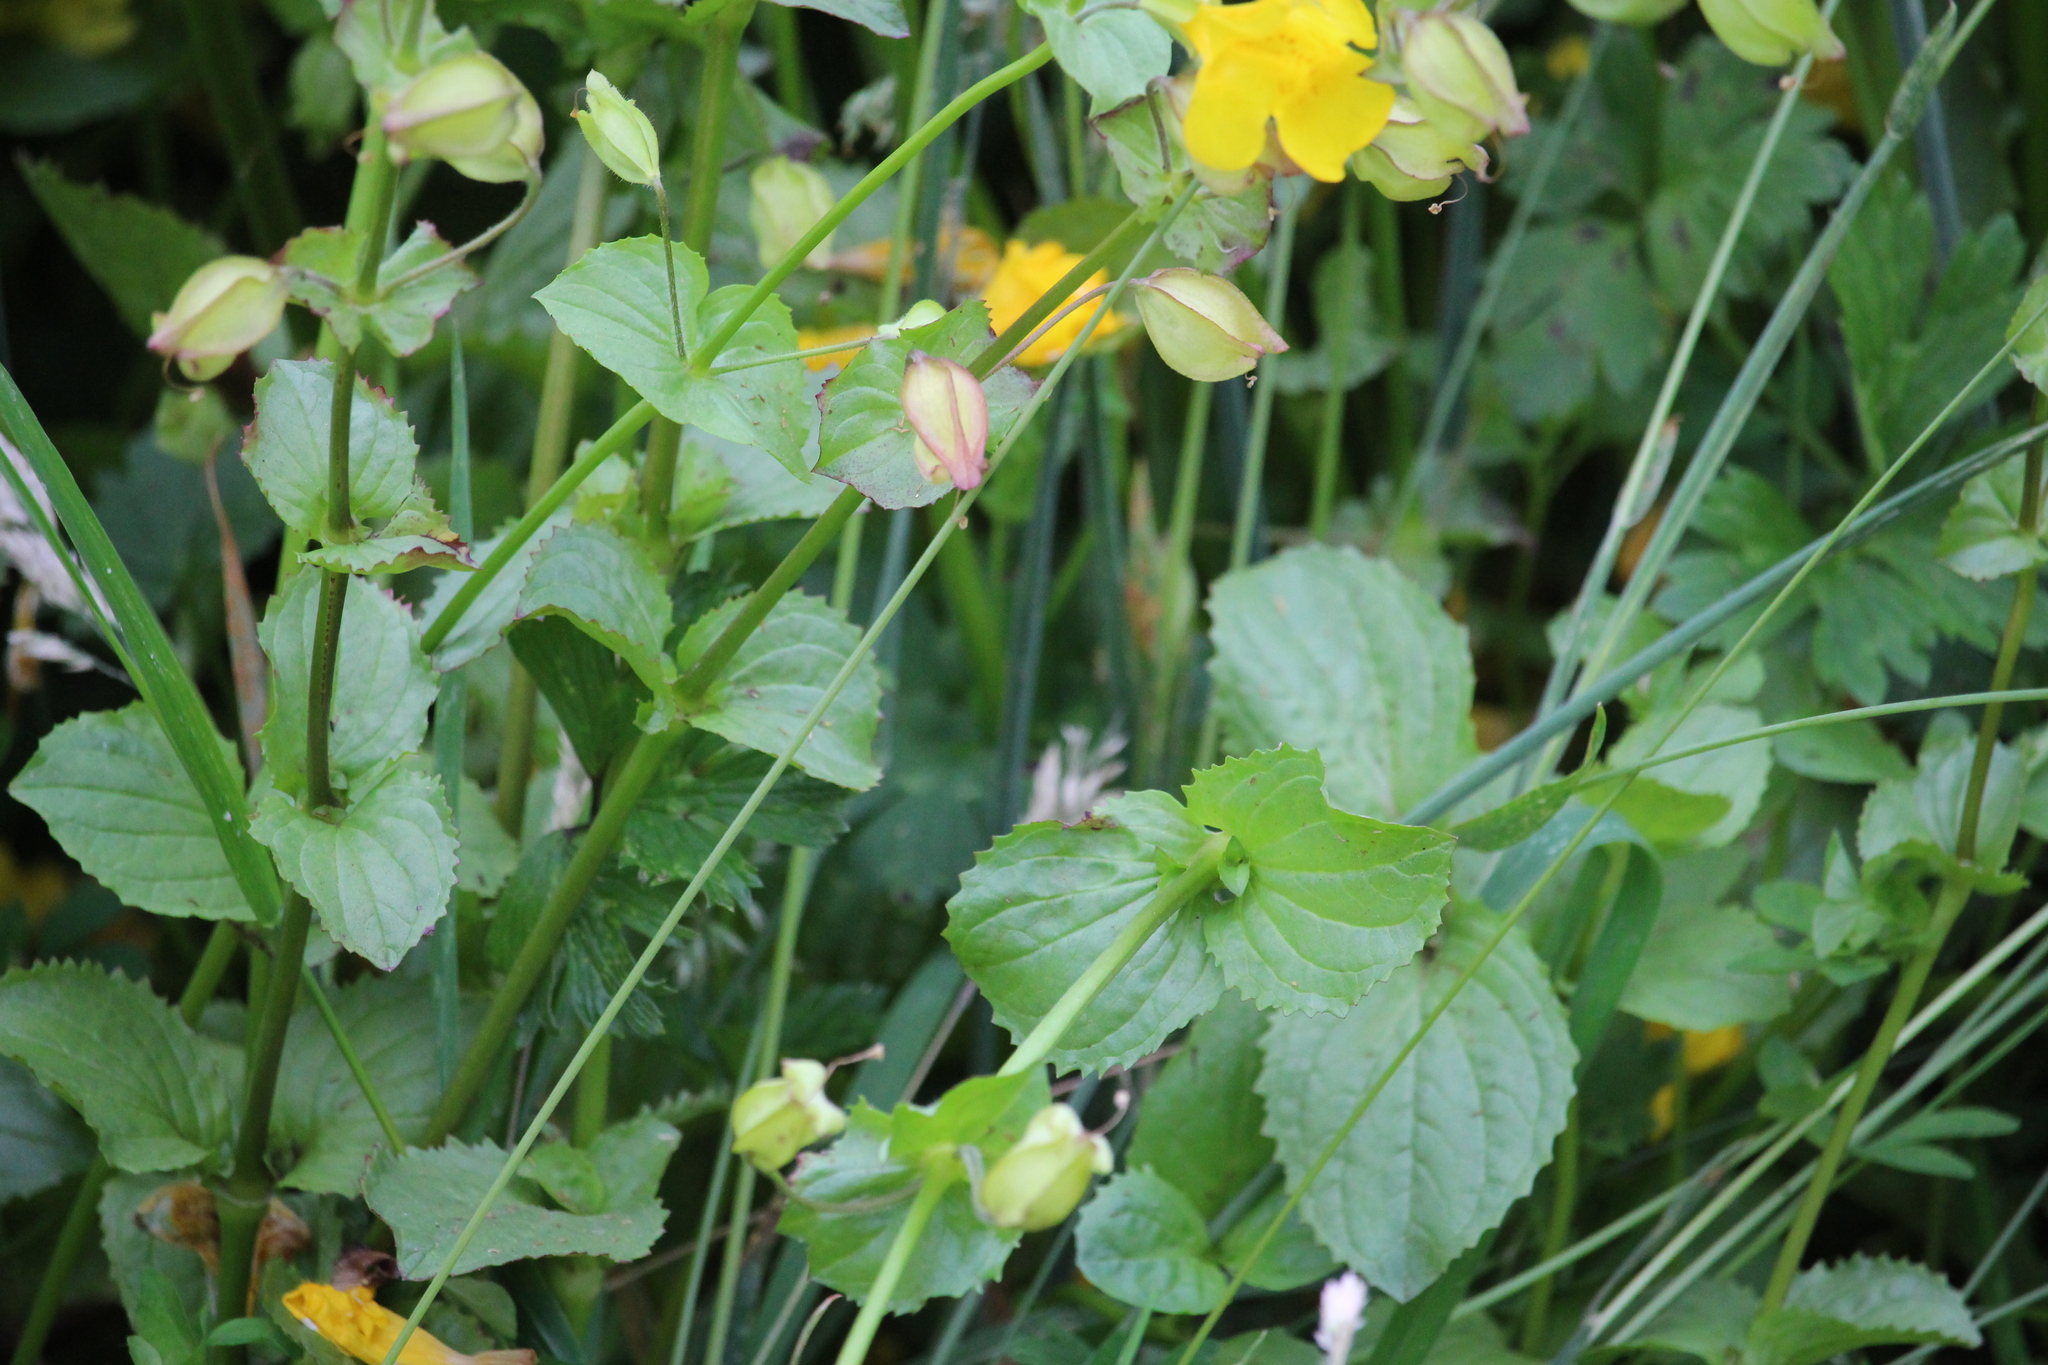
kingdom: Plantae
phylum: Tracheophyta
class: Magnoliopsida
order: Lamiales
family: Phrymaceae
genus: Erythranthe
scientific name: Erythranthe guttata
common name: Monkeyflower
